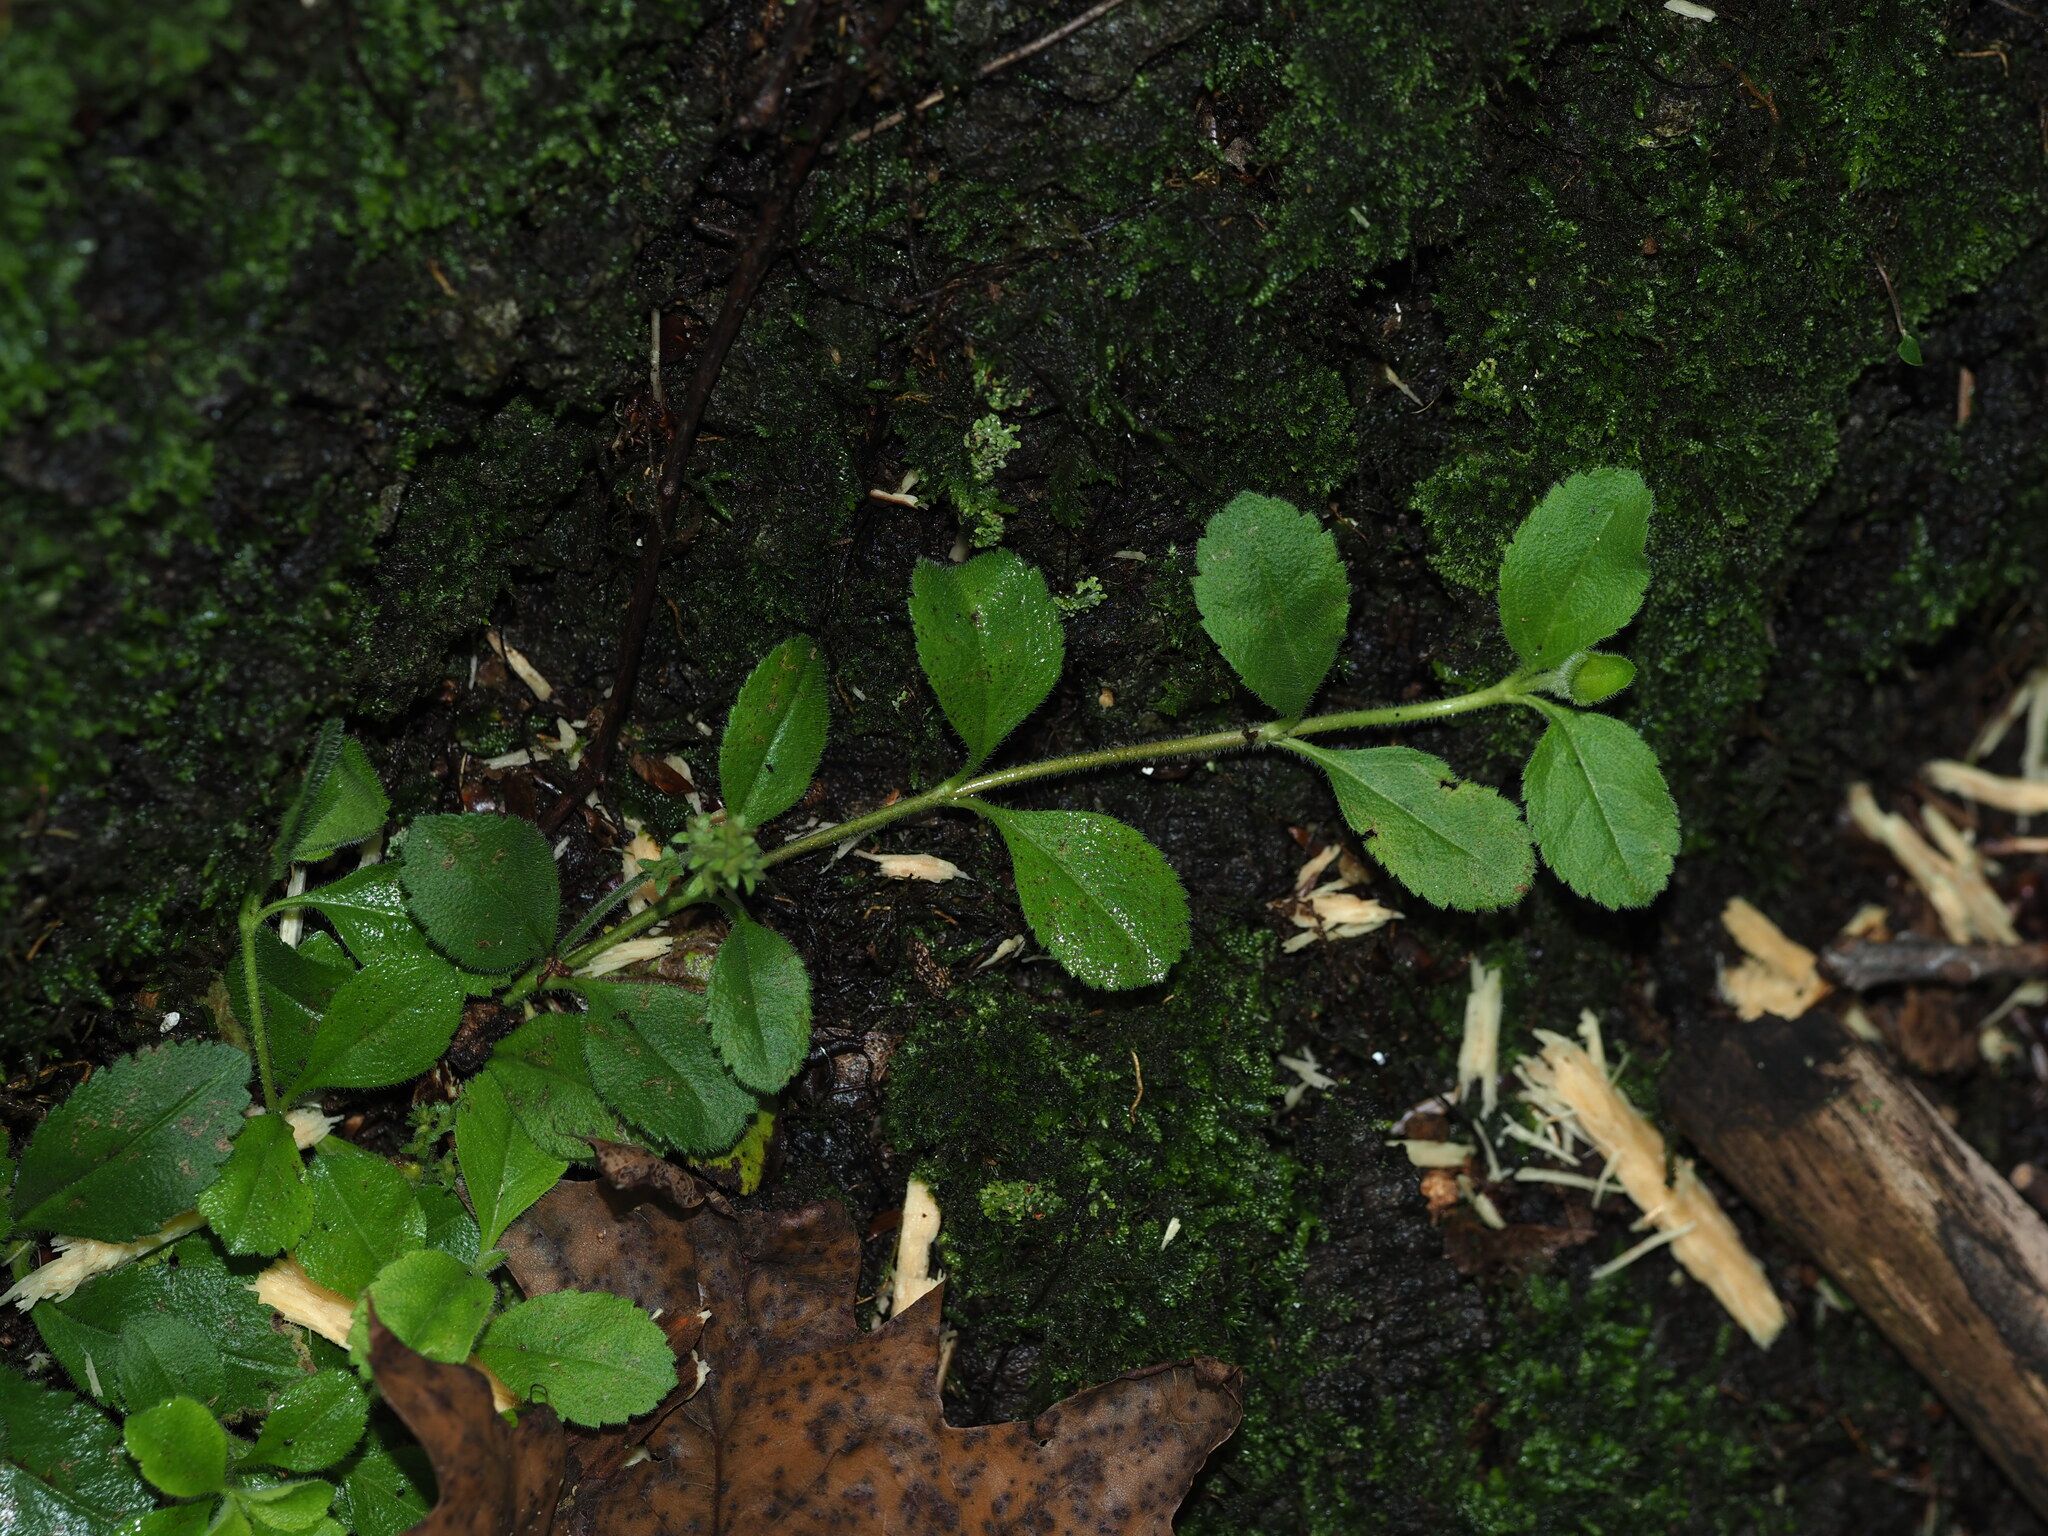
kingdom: Plantae
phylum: Tracheophyta
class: Magnoliopsida
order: Lamiales
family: Plantaginaceae
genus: Veronica
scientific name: Veronica officinalis
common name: Common speedwell
